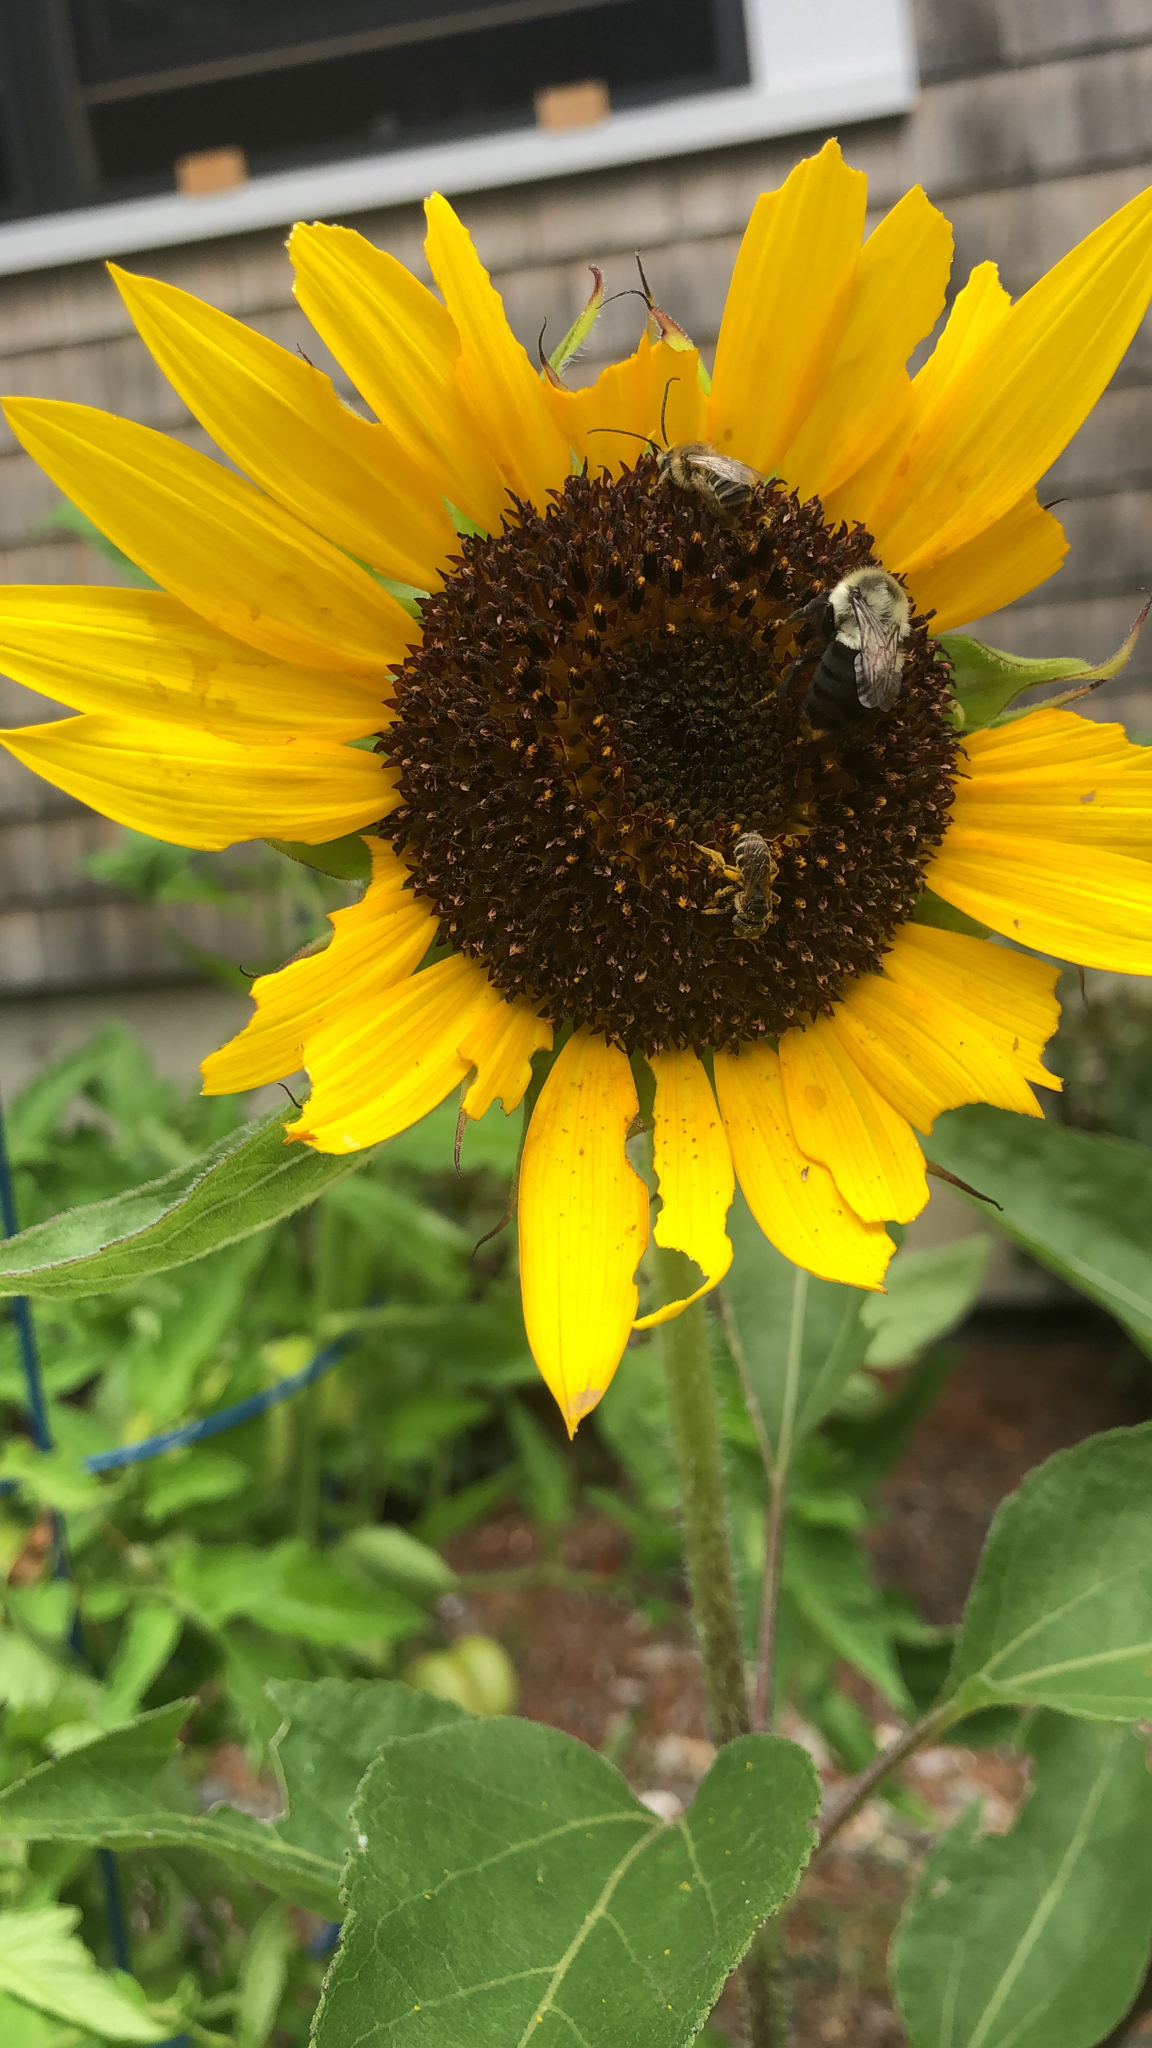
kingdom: Animalia
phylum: Arthropoda
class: Insecta
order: Hymenoptera
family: Apidae
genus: Bombus
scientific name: Bombus impatiens
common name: Common eastern bumble bee
